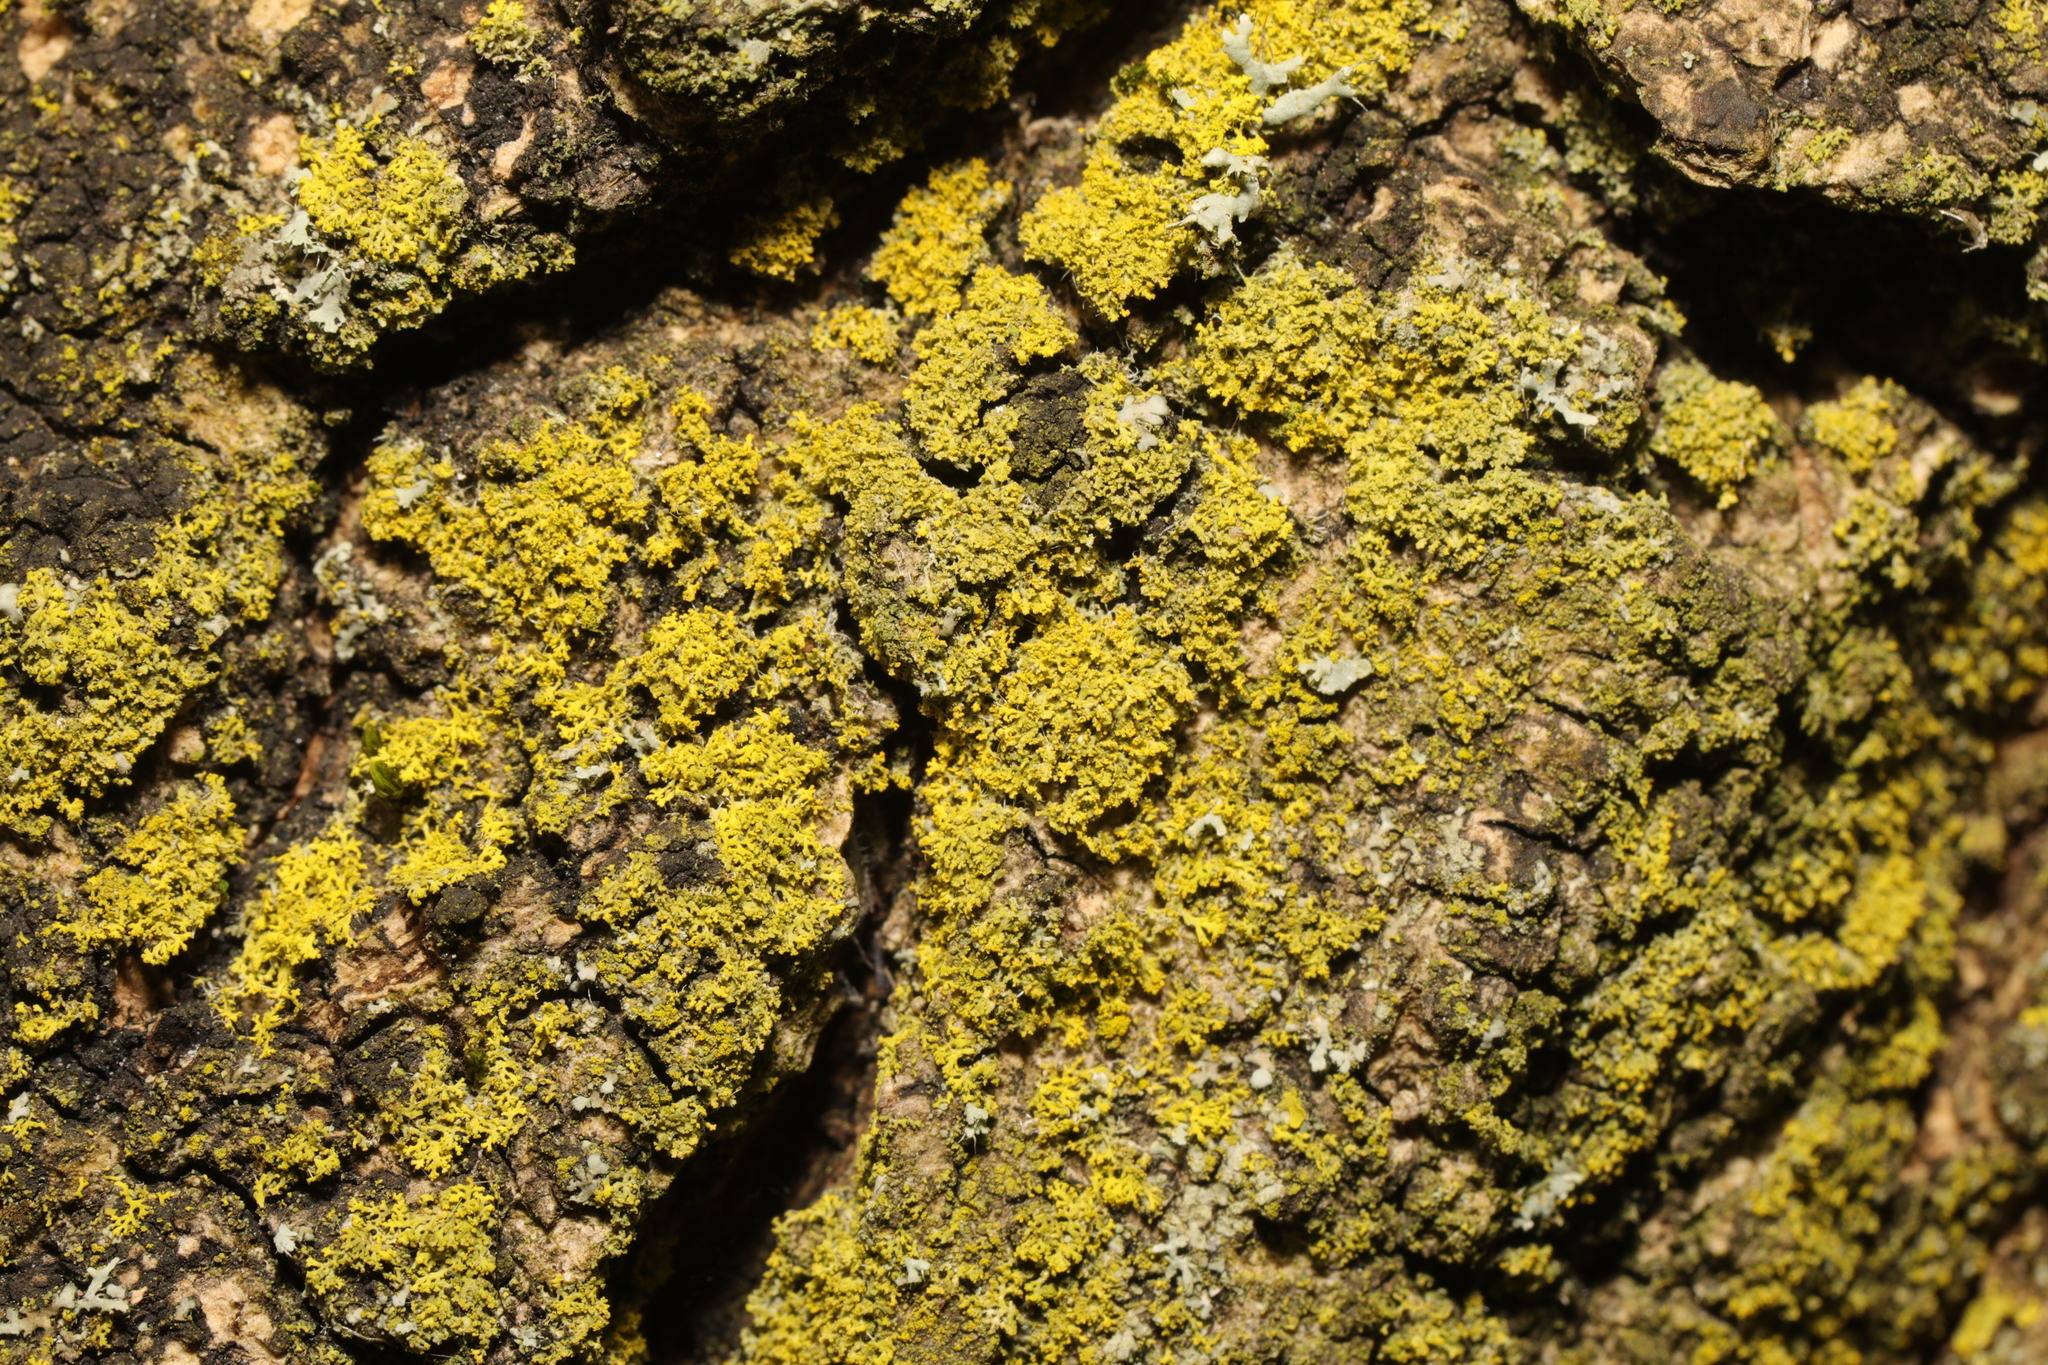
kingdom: Fungi
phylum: Ascomycota
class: Candelariomycetes
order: Candelariales
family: Candelariaceae
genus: Candelaria
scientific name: Candelaria concolor
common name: Candleflame lichen
